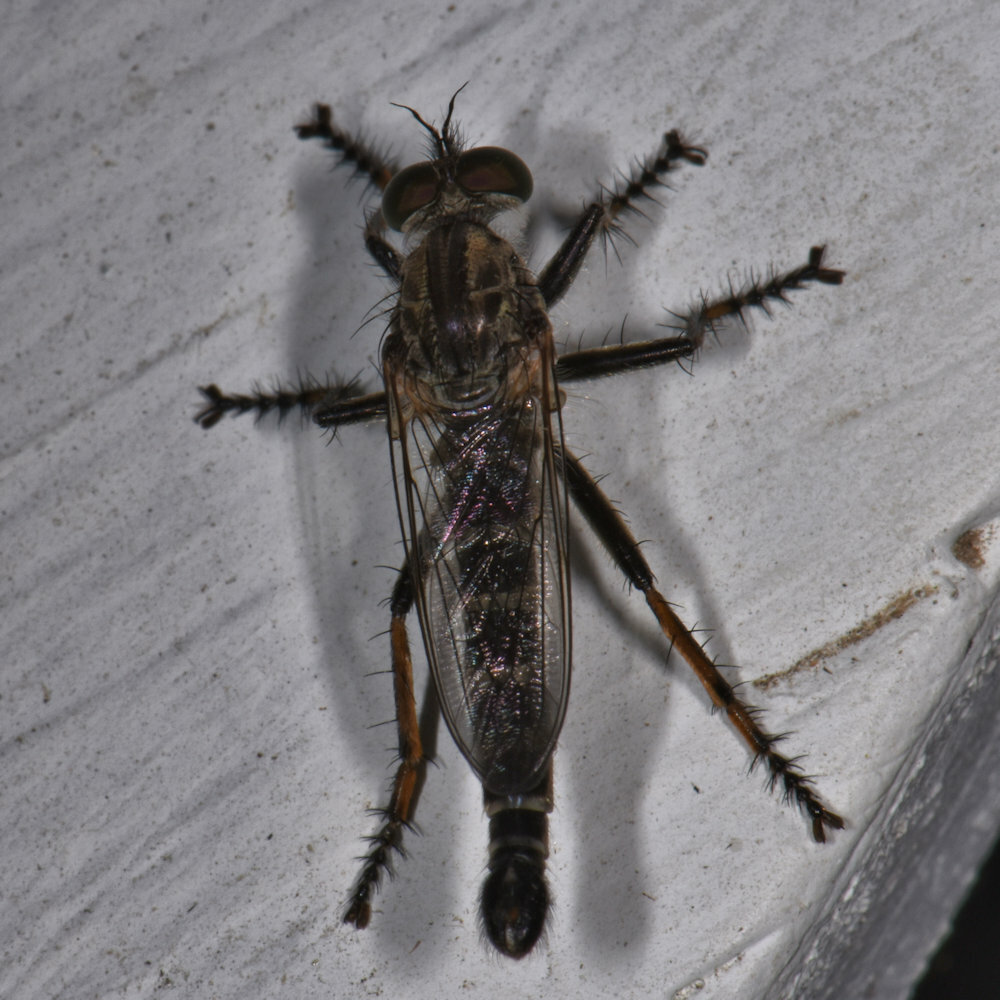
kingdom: Animalia
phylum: Arthropoda
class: Insecta
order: Diptera
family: Asilidae
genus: Machimus
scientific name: Machimus sadyates
